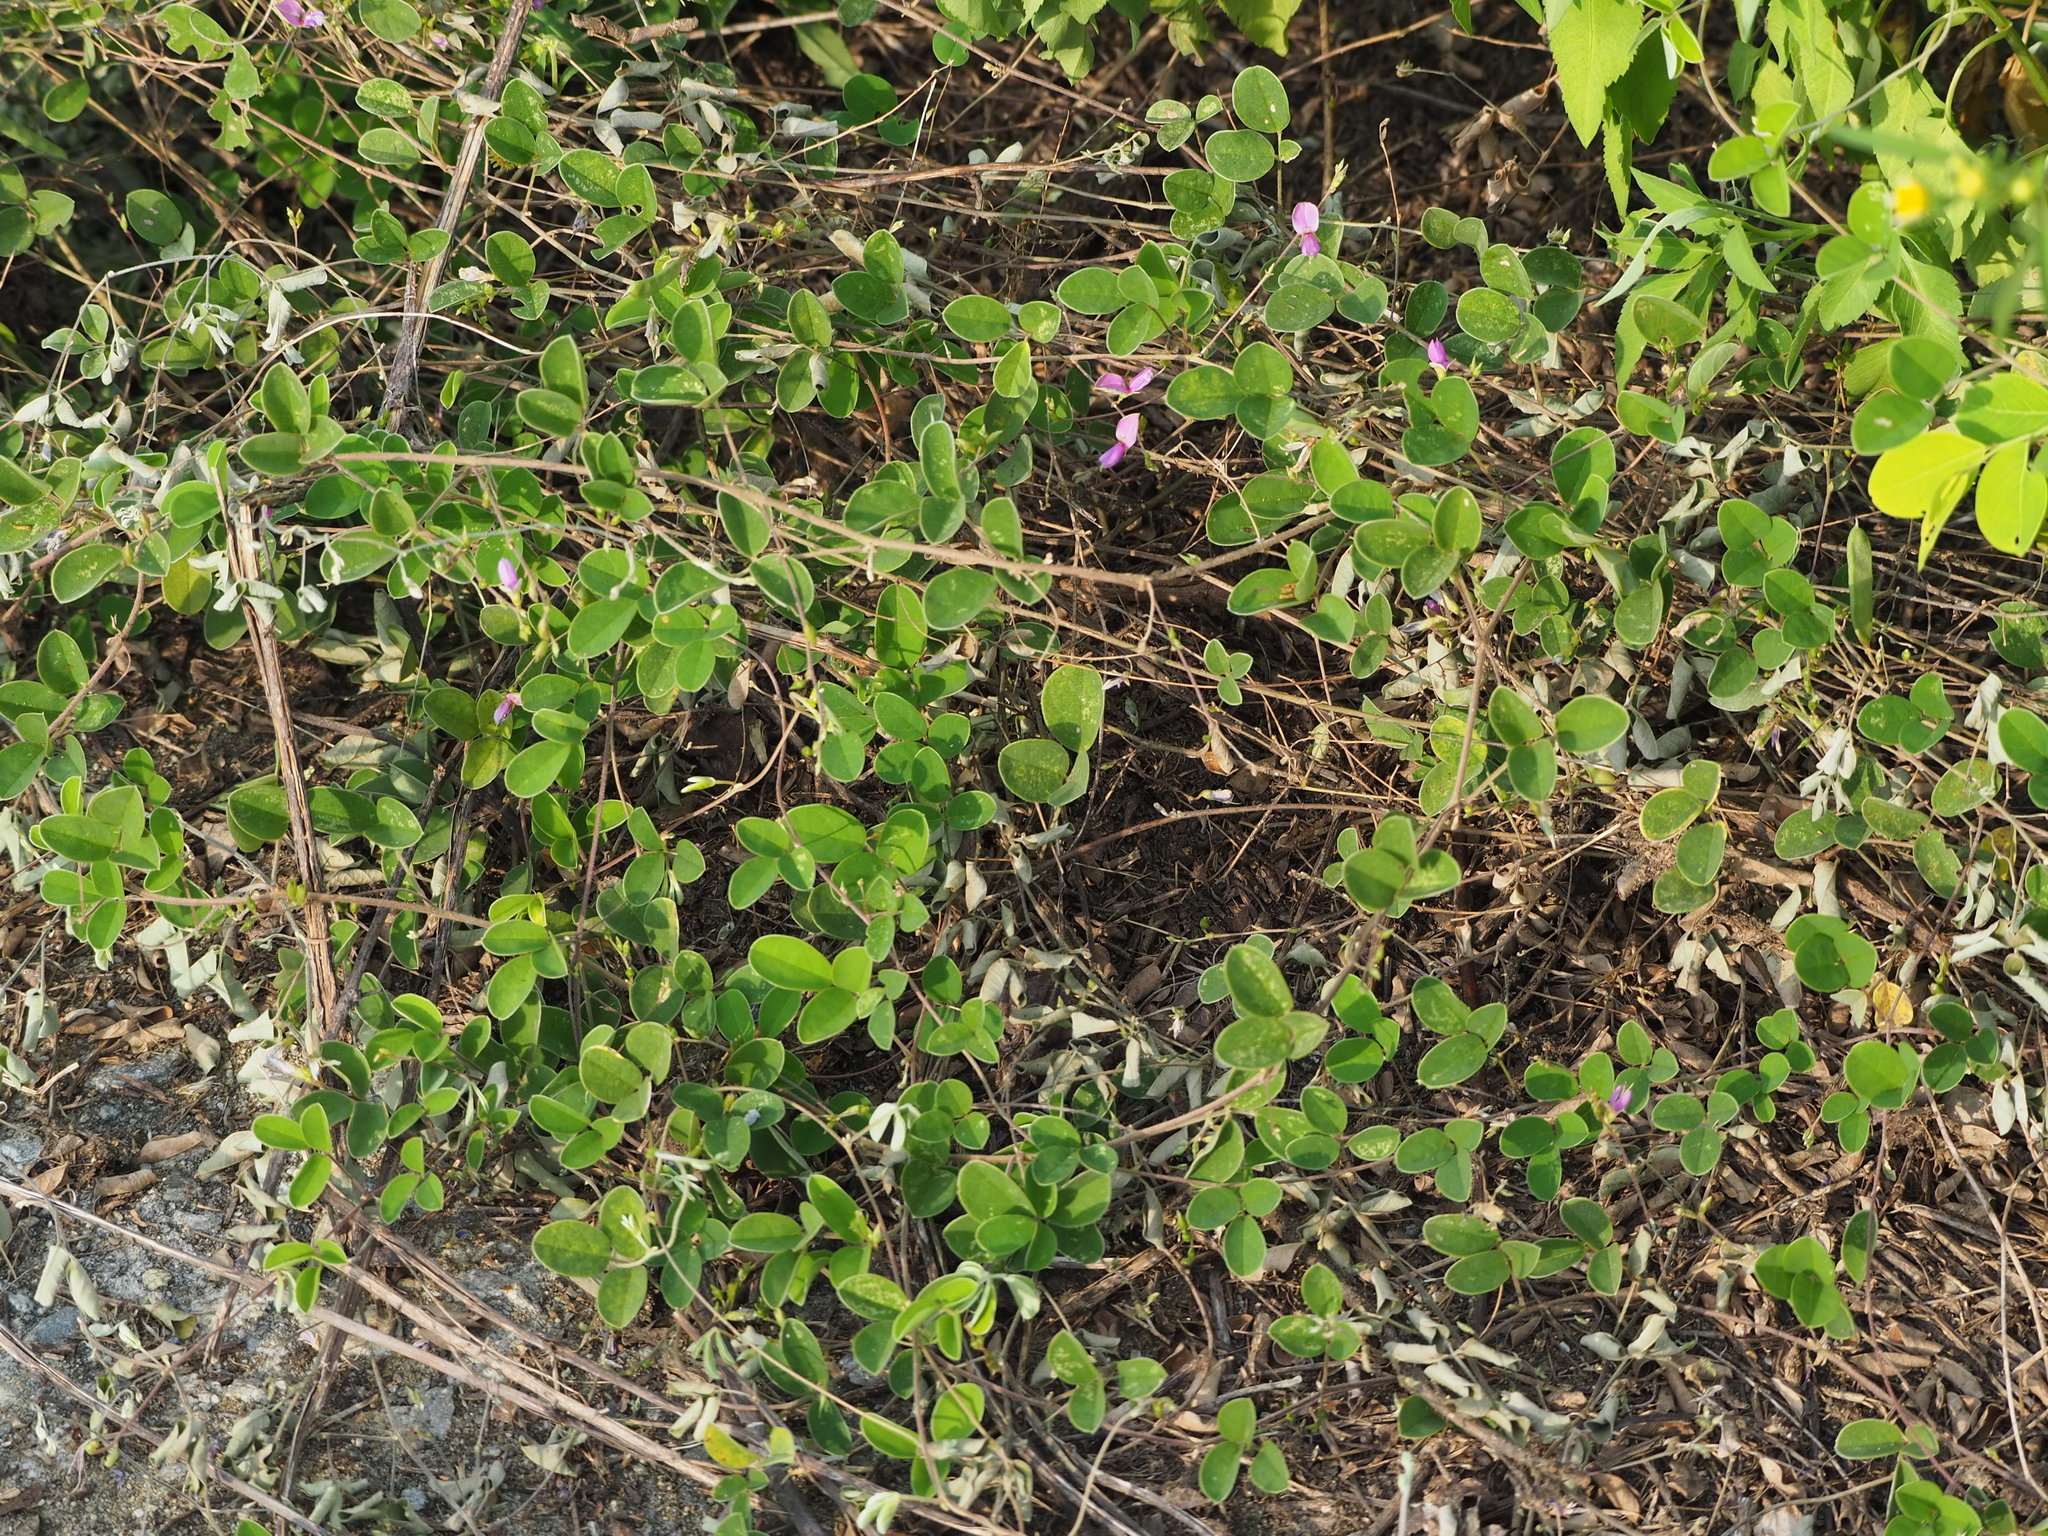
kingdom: Plantae
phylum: Tracheophyta
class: Magnoliopsida
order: Fabales
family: Fabaceae
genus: Galactia
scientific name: Galactia tashiroi
